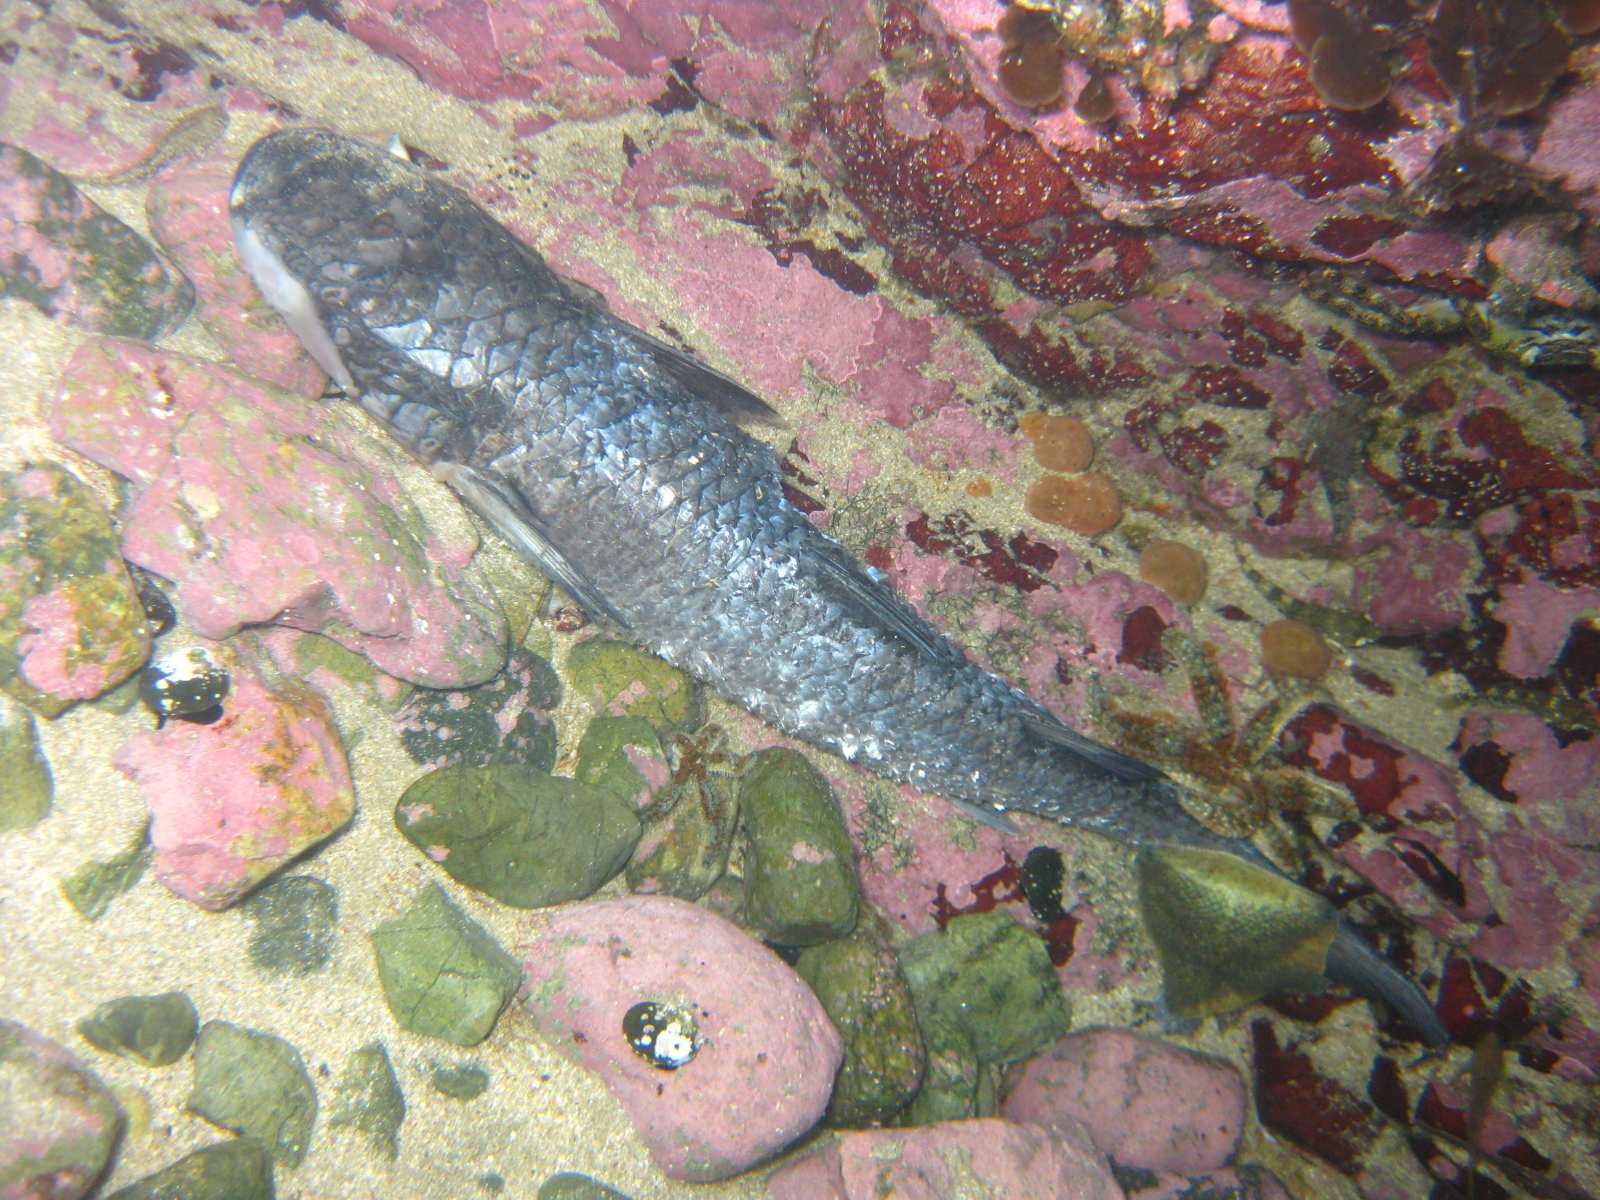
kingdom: Animalia
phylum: Chordata
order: Mugiliformes
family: Mugilidae
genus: Mugil
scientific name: Mugil cephalus
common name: Grey mullet
